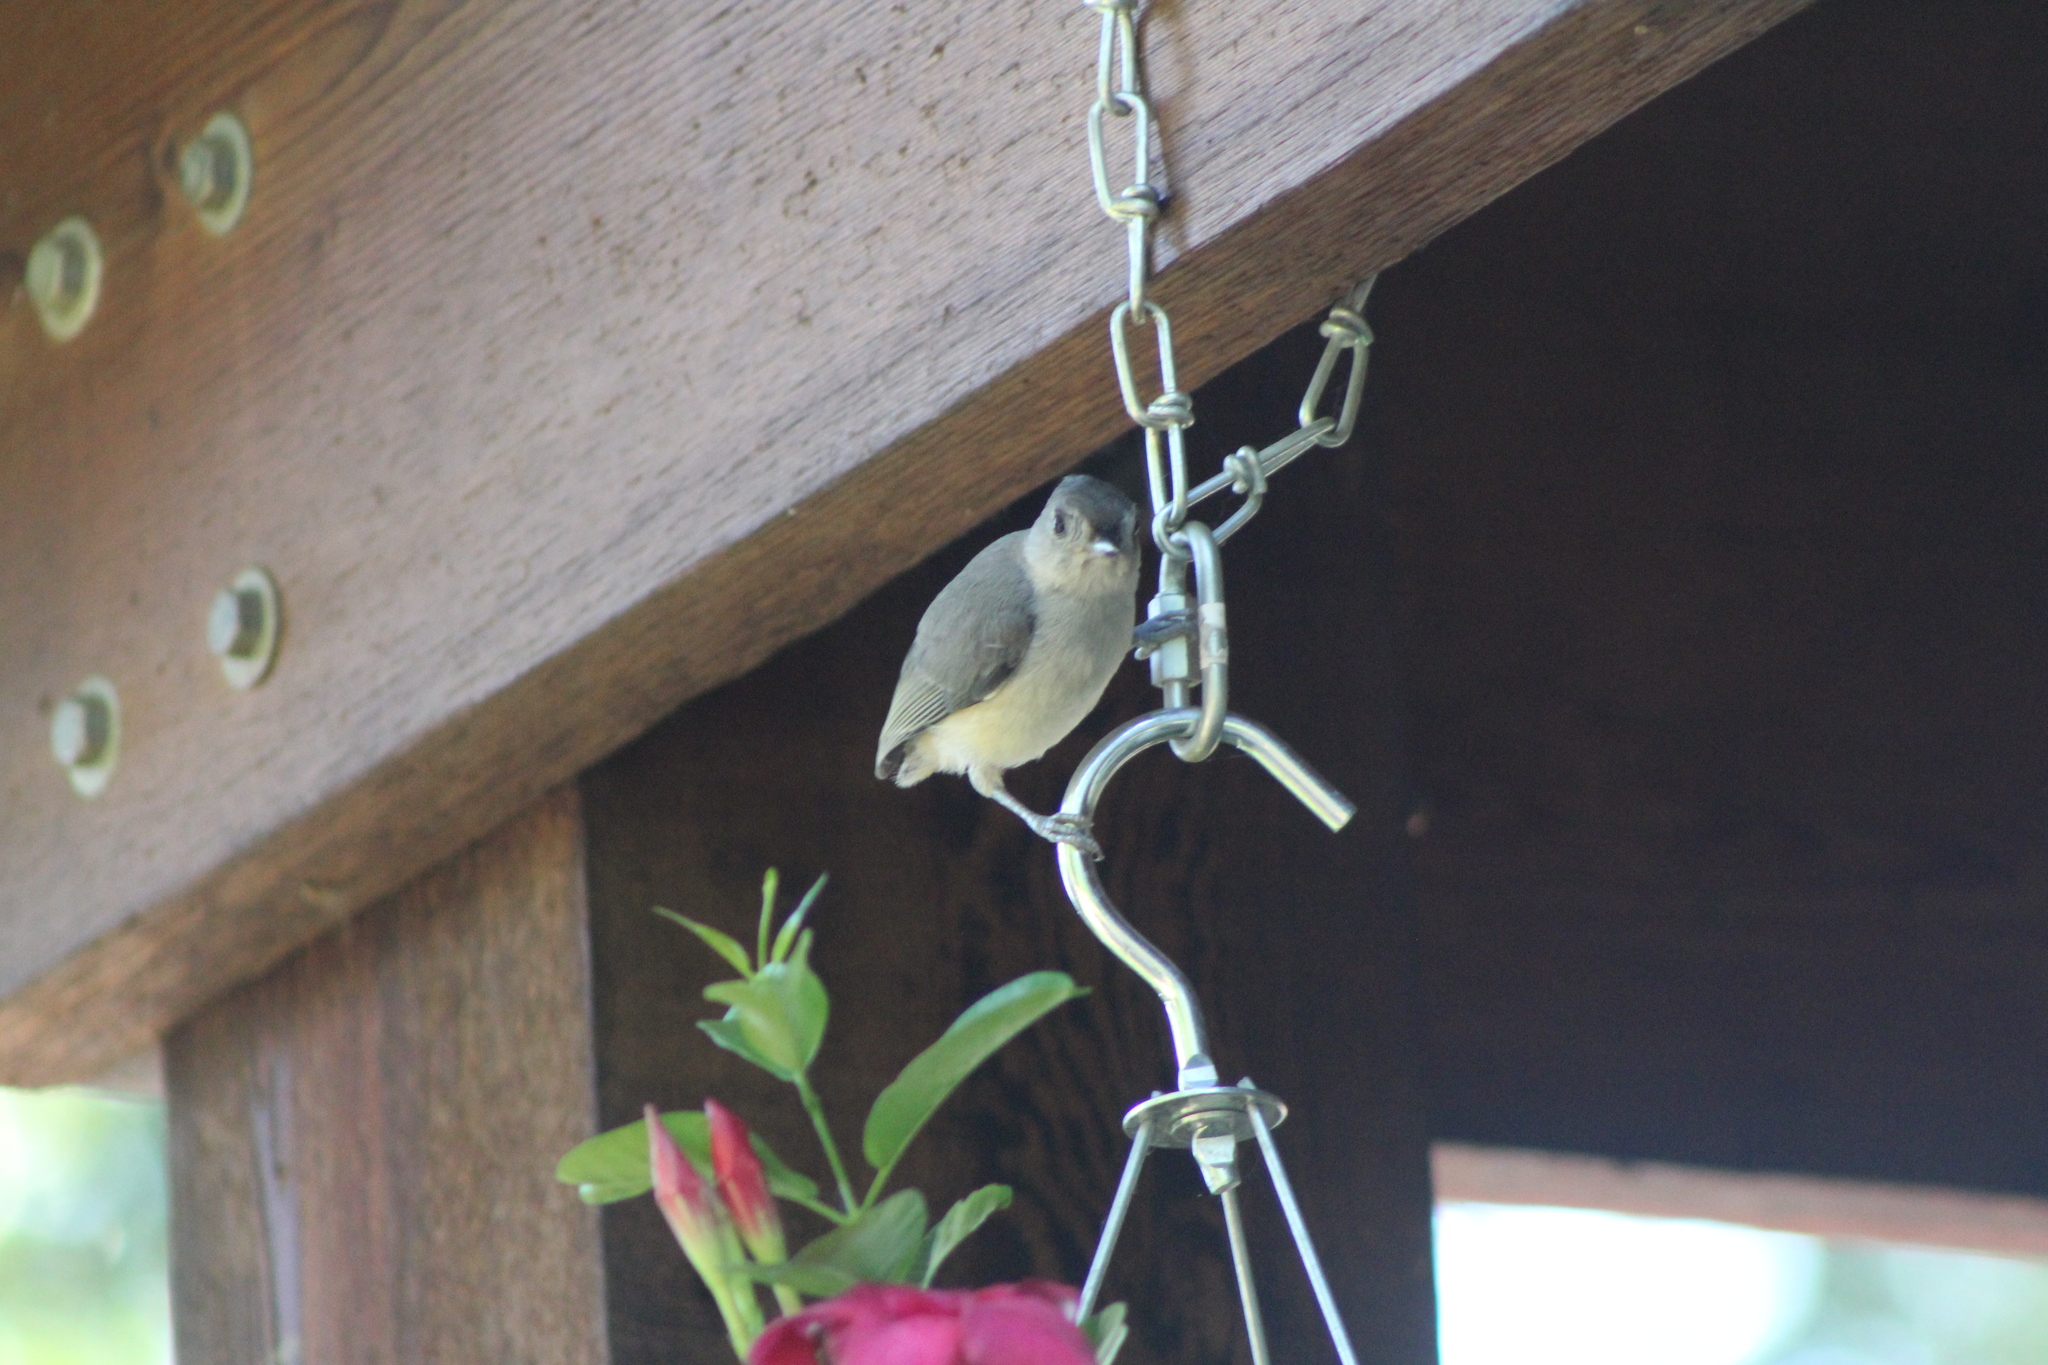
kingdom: Animalia
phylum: Chordata
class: Aves
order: Passeriformes
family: Paridae
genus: Baeolophus
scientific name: Baeolophus bicolor
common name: Tufted titmouse
